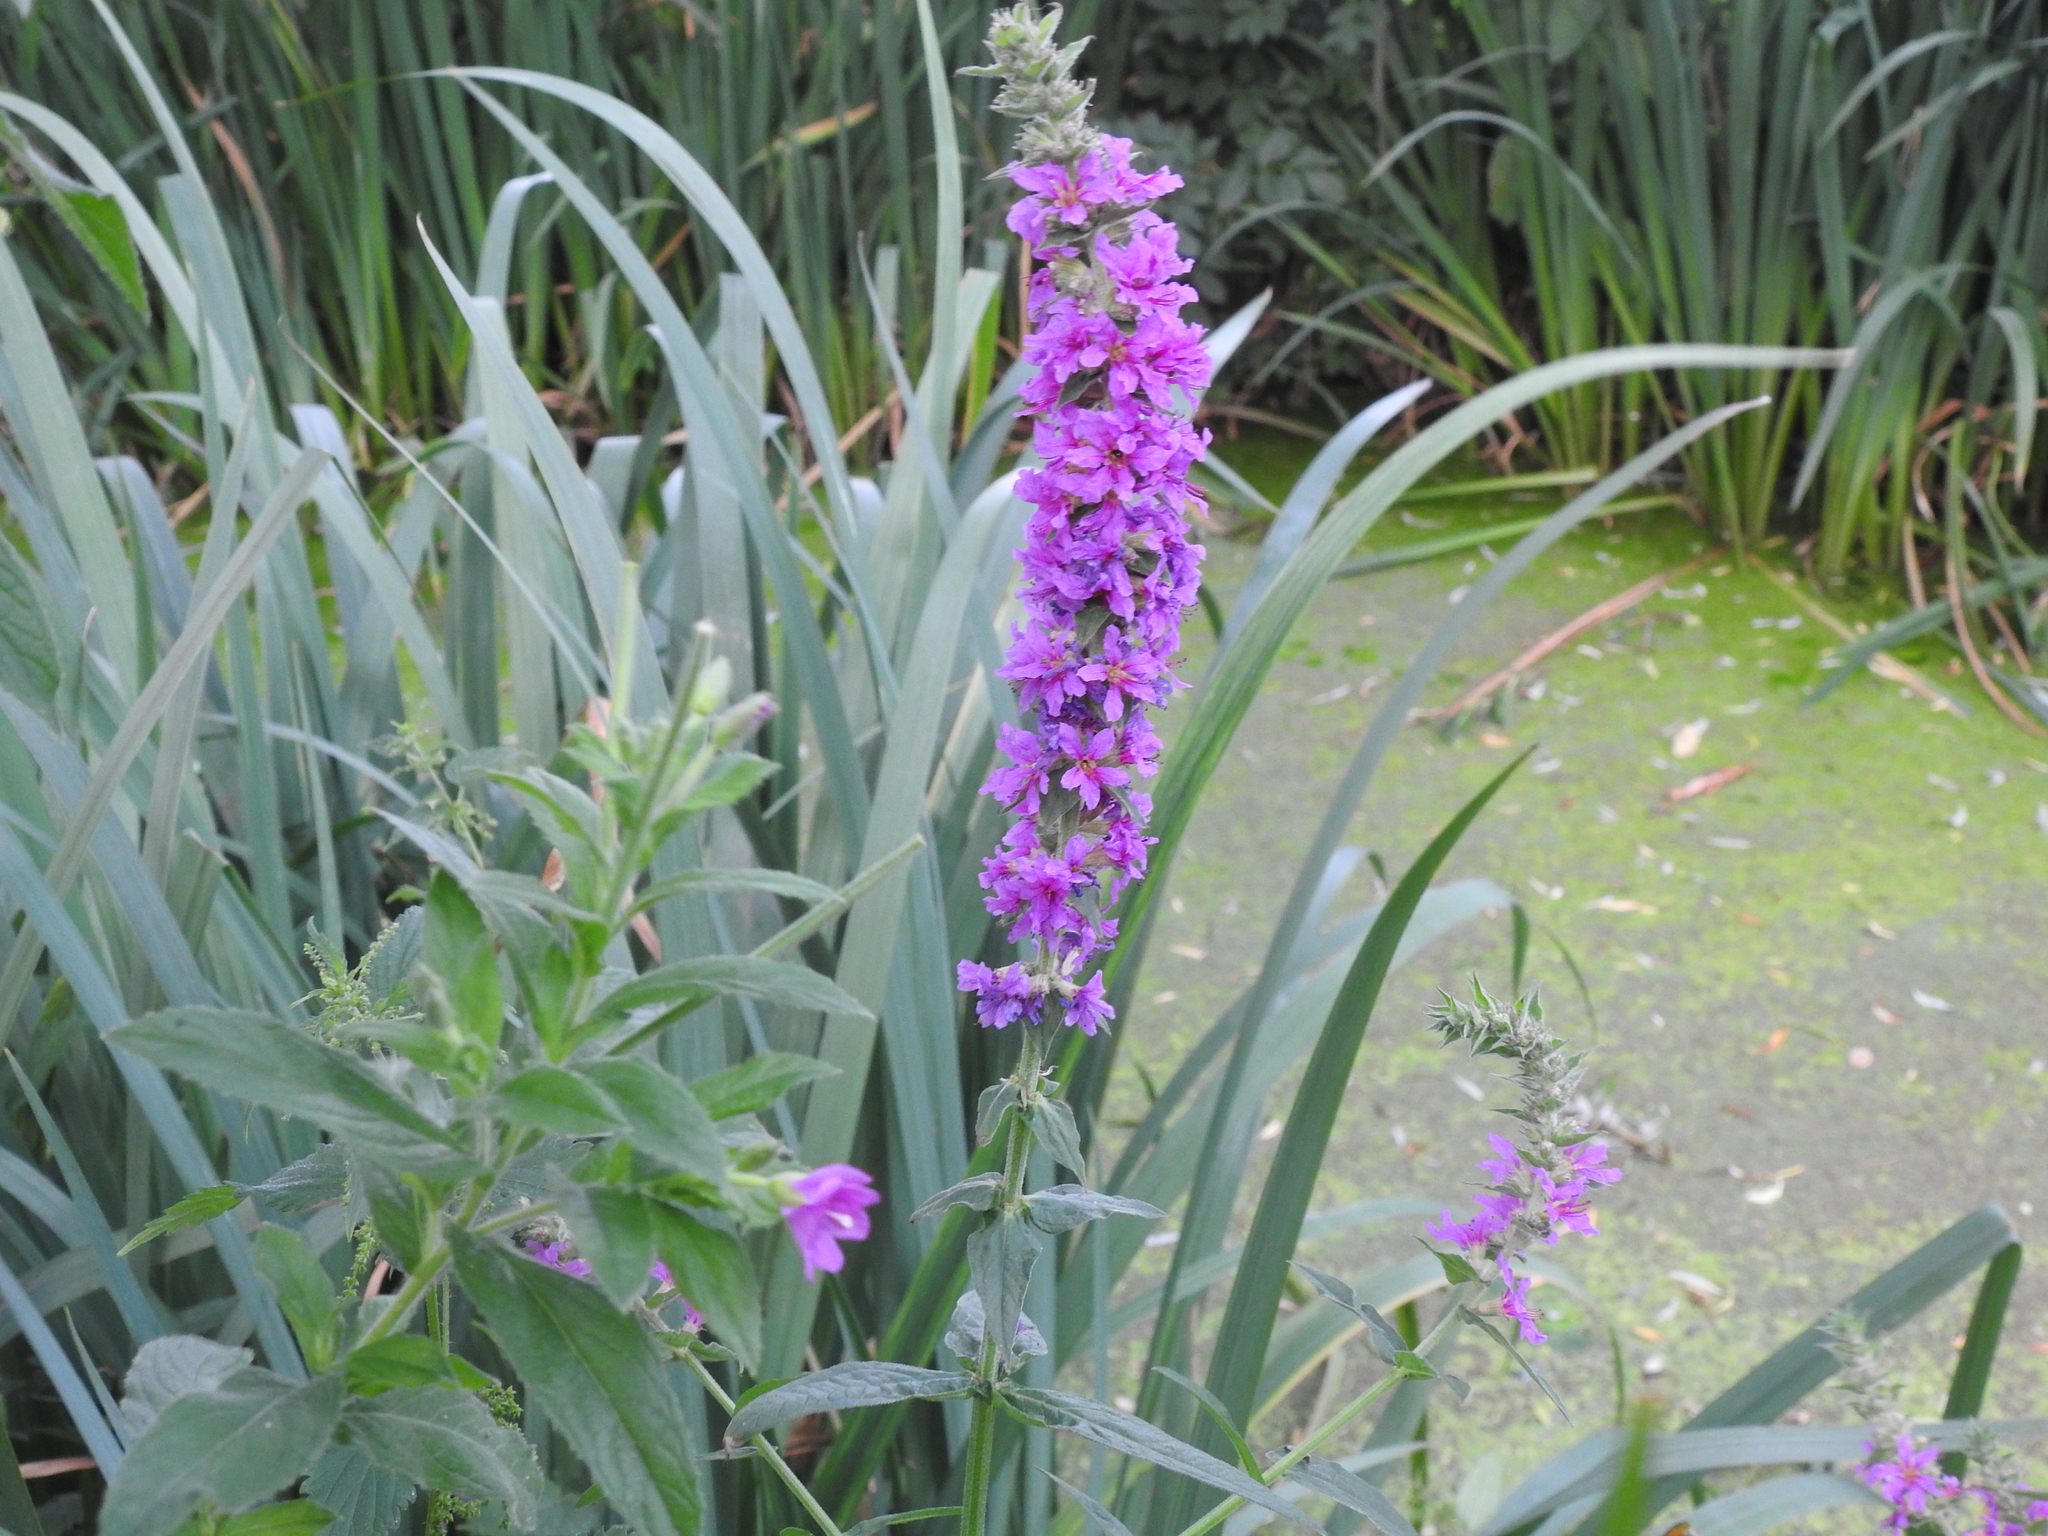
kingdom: Plantae
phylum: Tracheophyta
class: Magnoliopsida
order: Myrtales
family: Lythraceae
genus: Lythrum
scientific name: Lythrum salicaria
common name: Purple loosestrife
